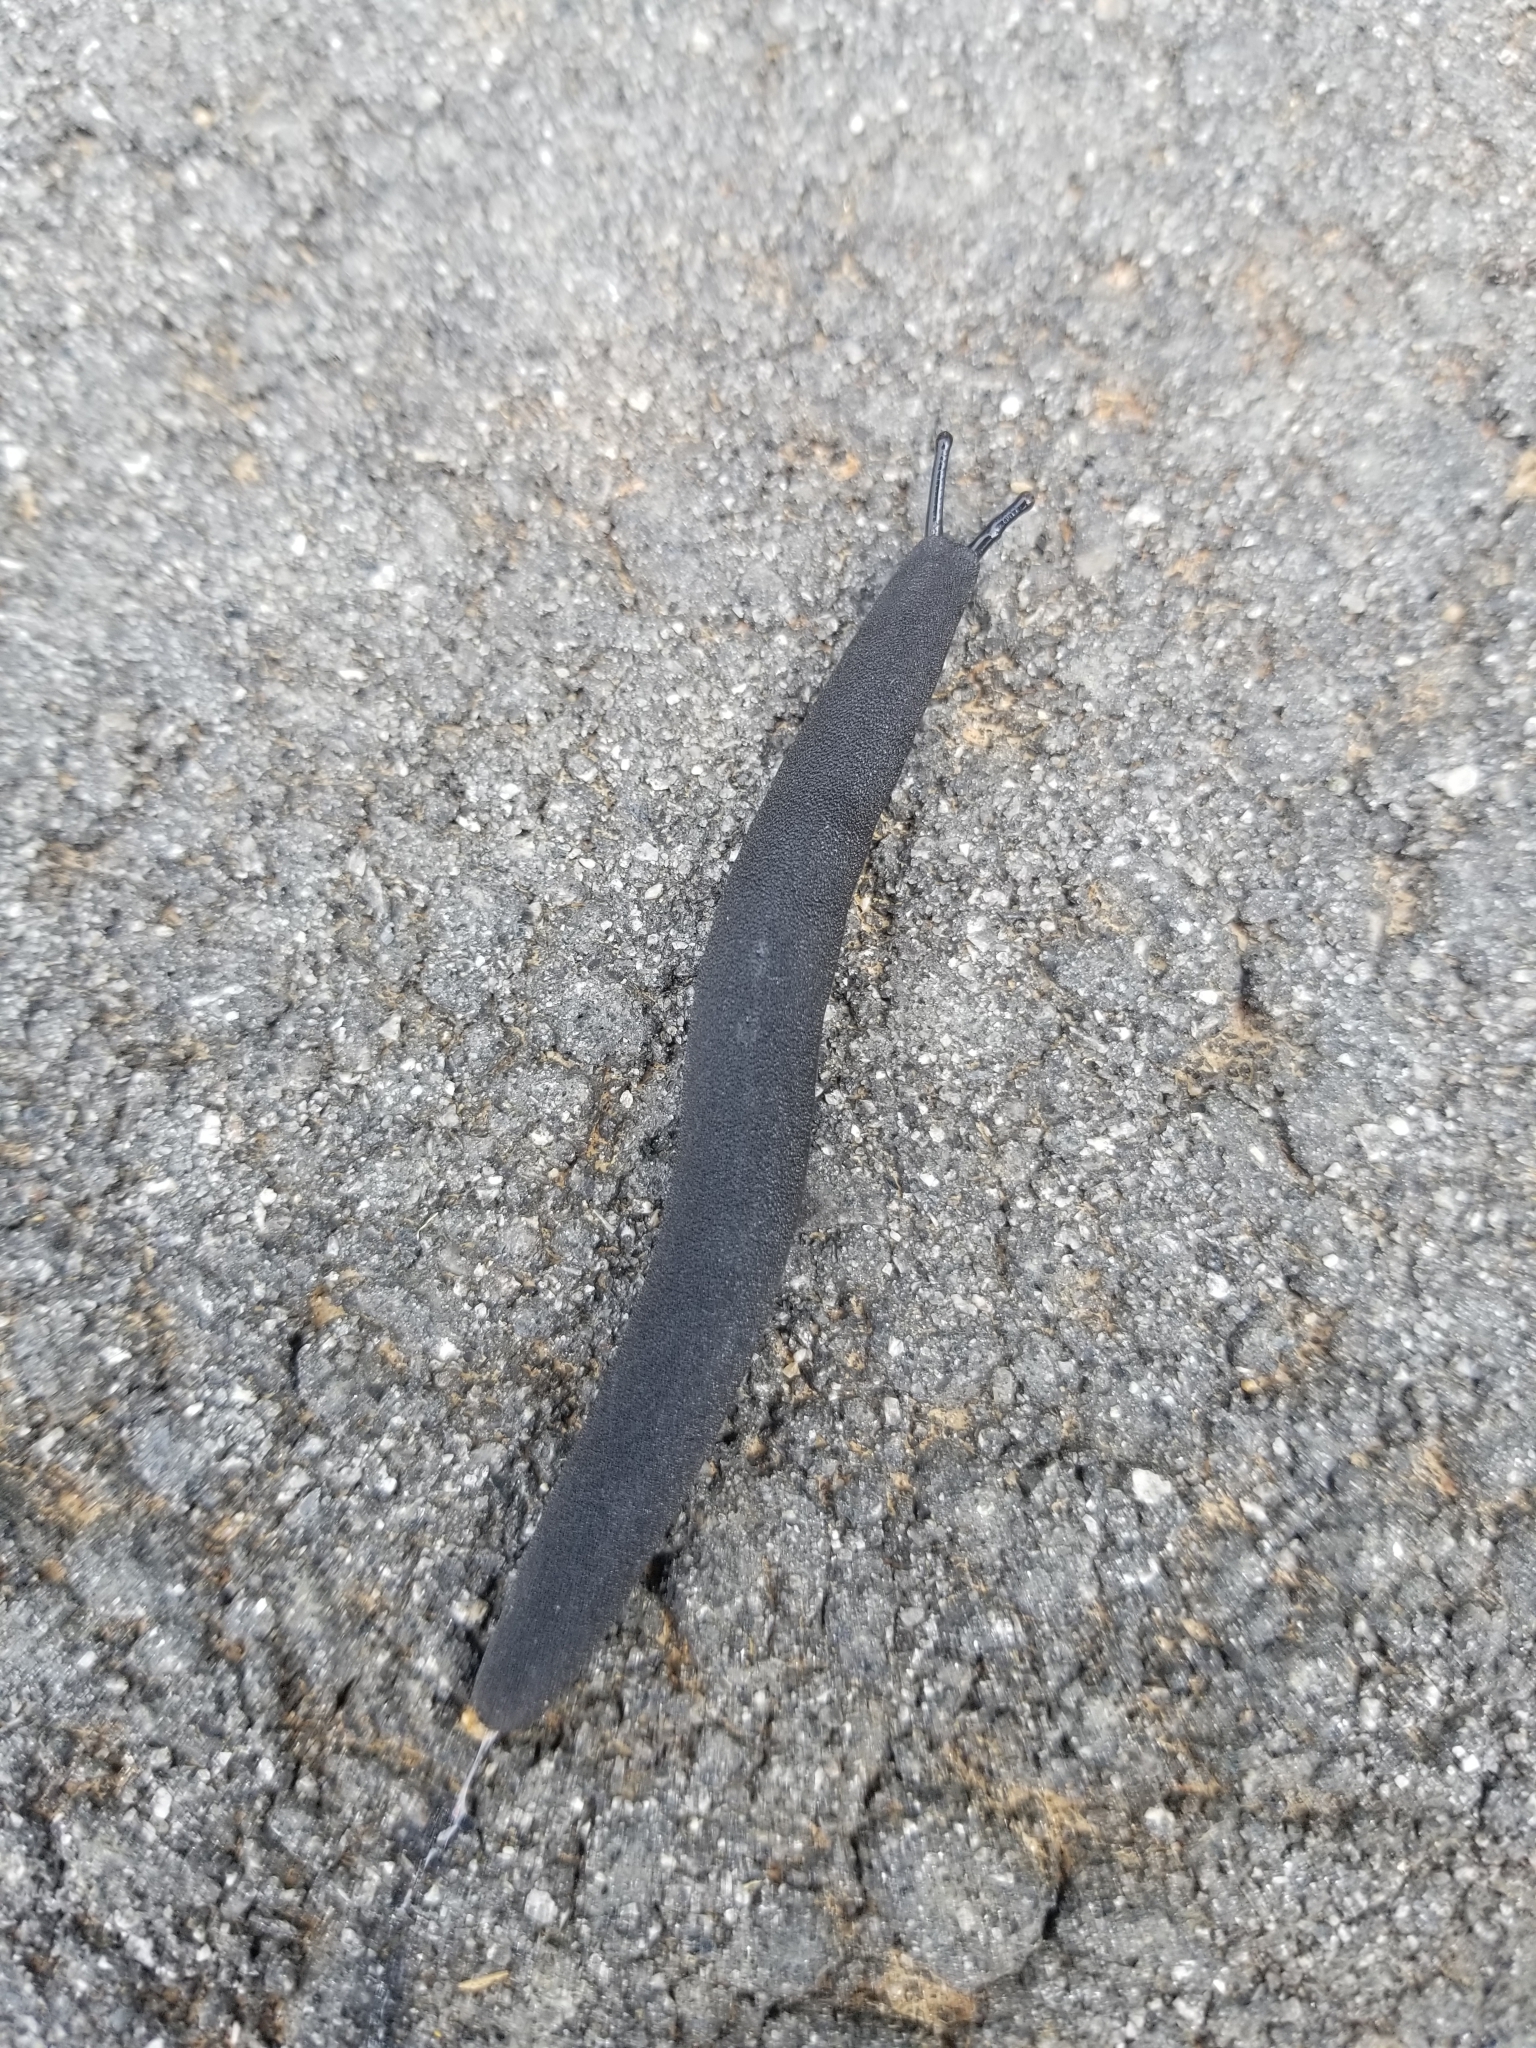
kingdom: Animalia
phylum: Mollusca
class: Gastropoda
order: Systellommatophora
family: Veronicellidae
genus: Belocaulus
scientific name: Belocaulus angustipes
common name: Black velvet leatherleaf slug
